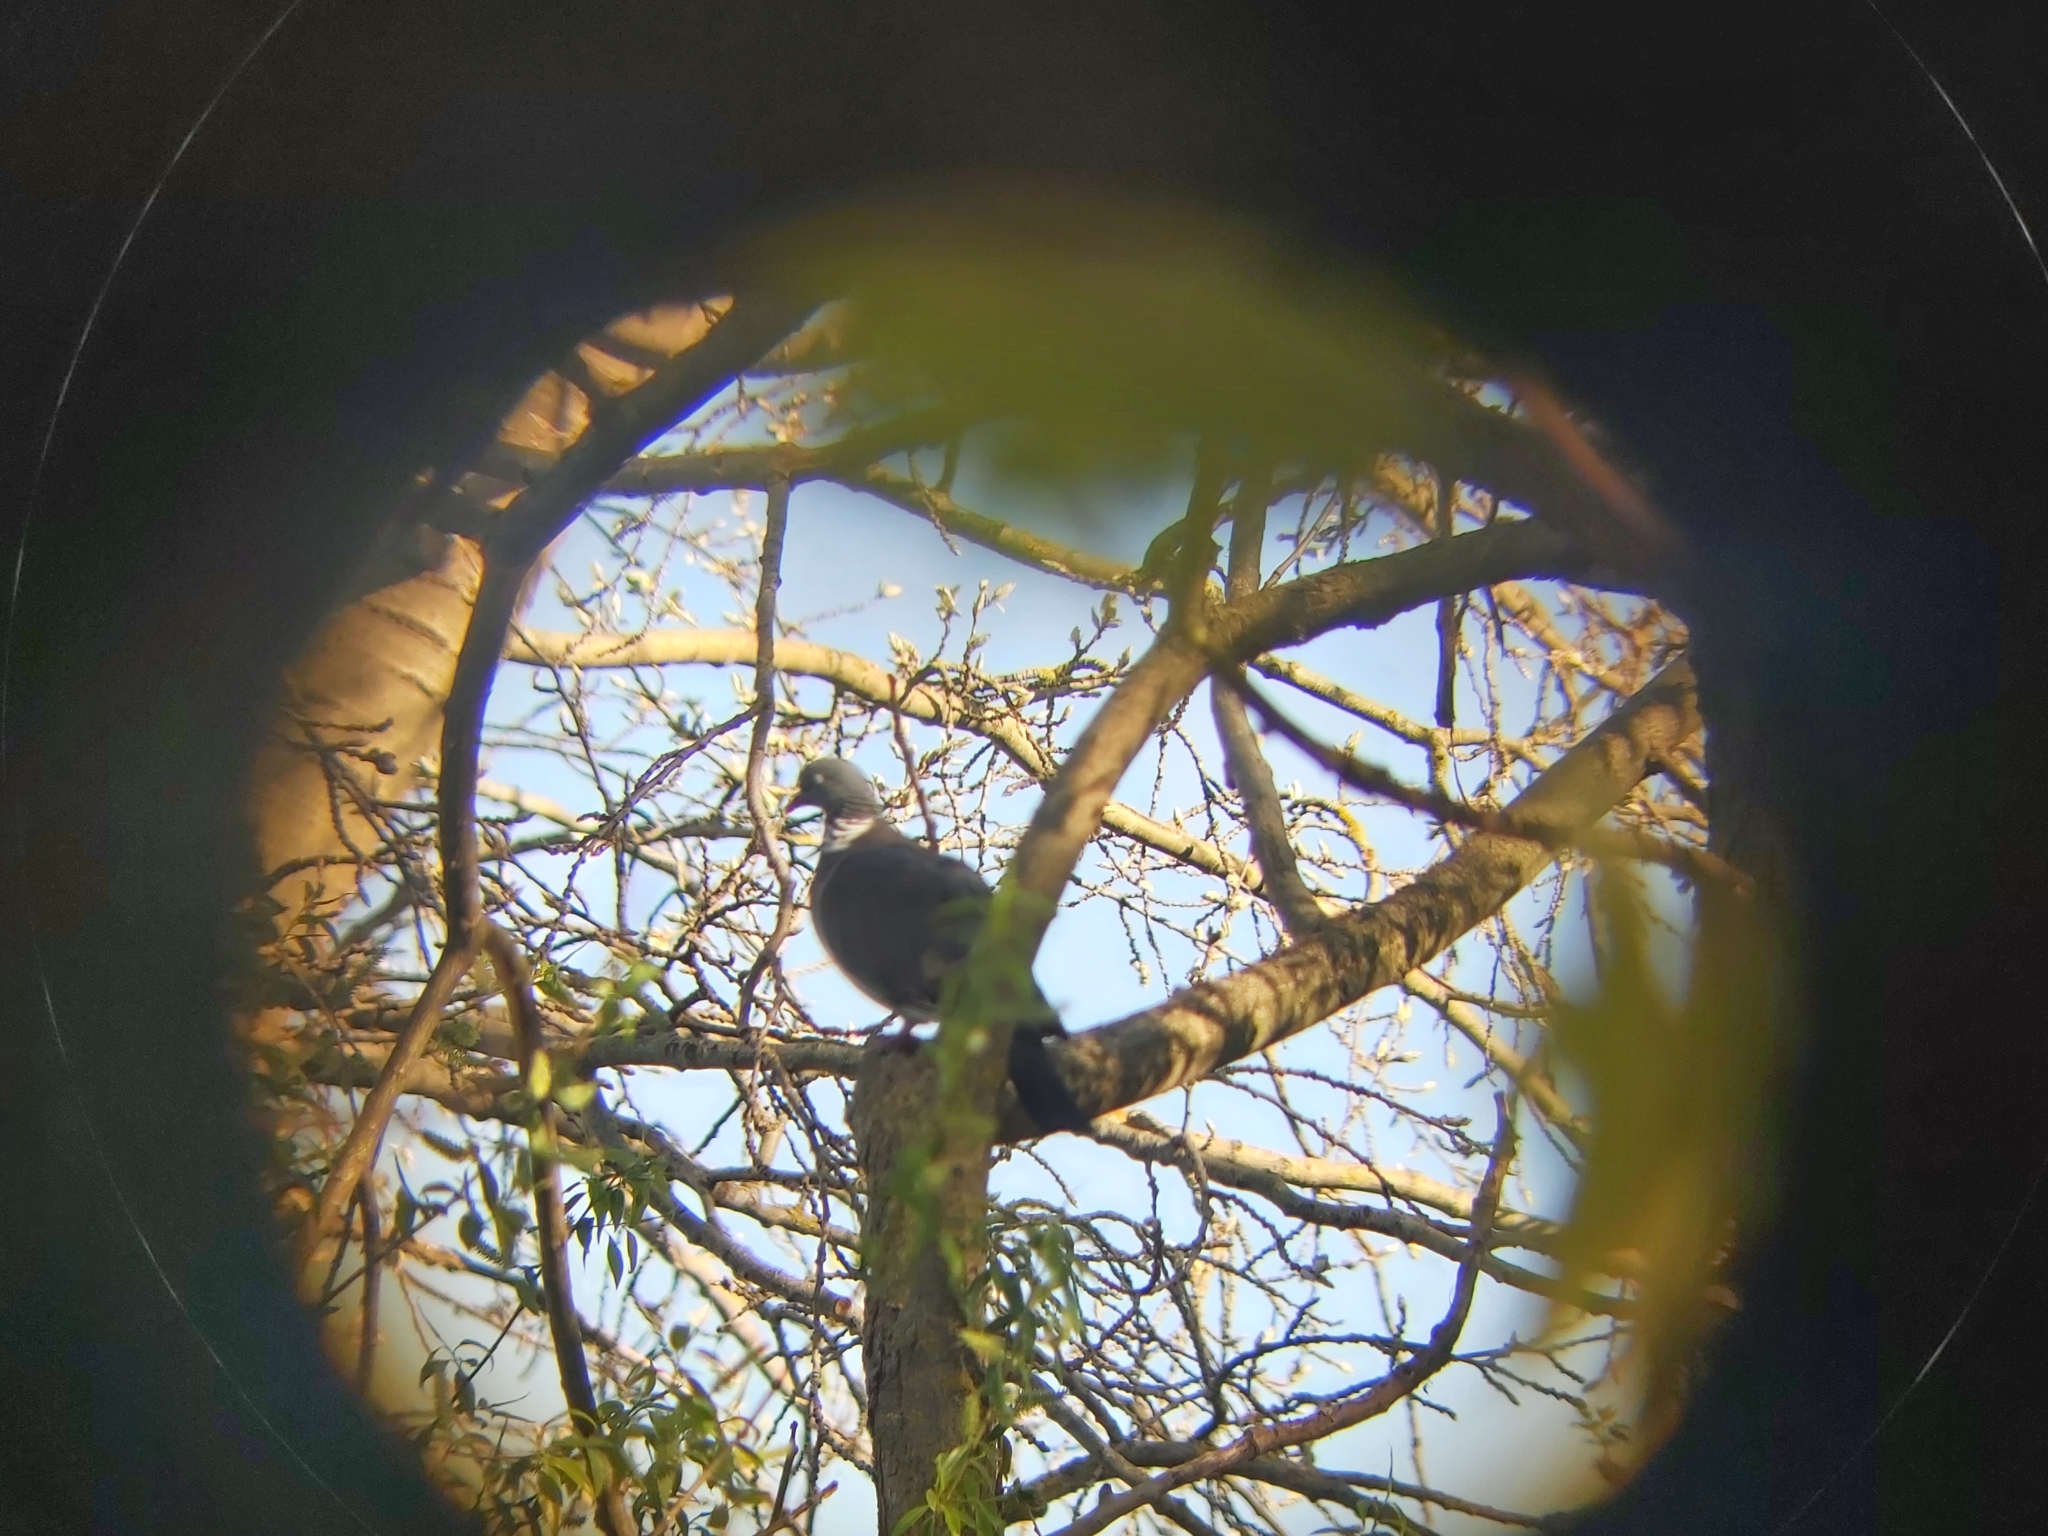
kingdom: Animalia
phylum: Chordata
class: Aves
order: Columbiformes
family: Columbidae
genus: Columba
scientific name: Columba palumbus
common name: Common wood pigeon
